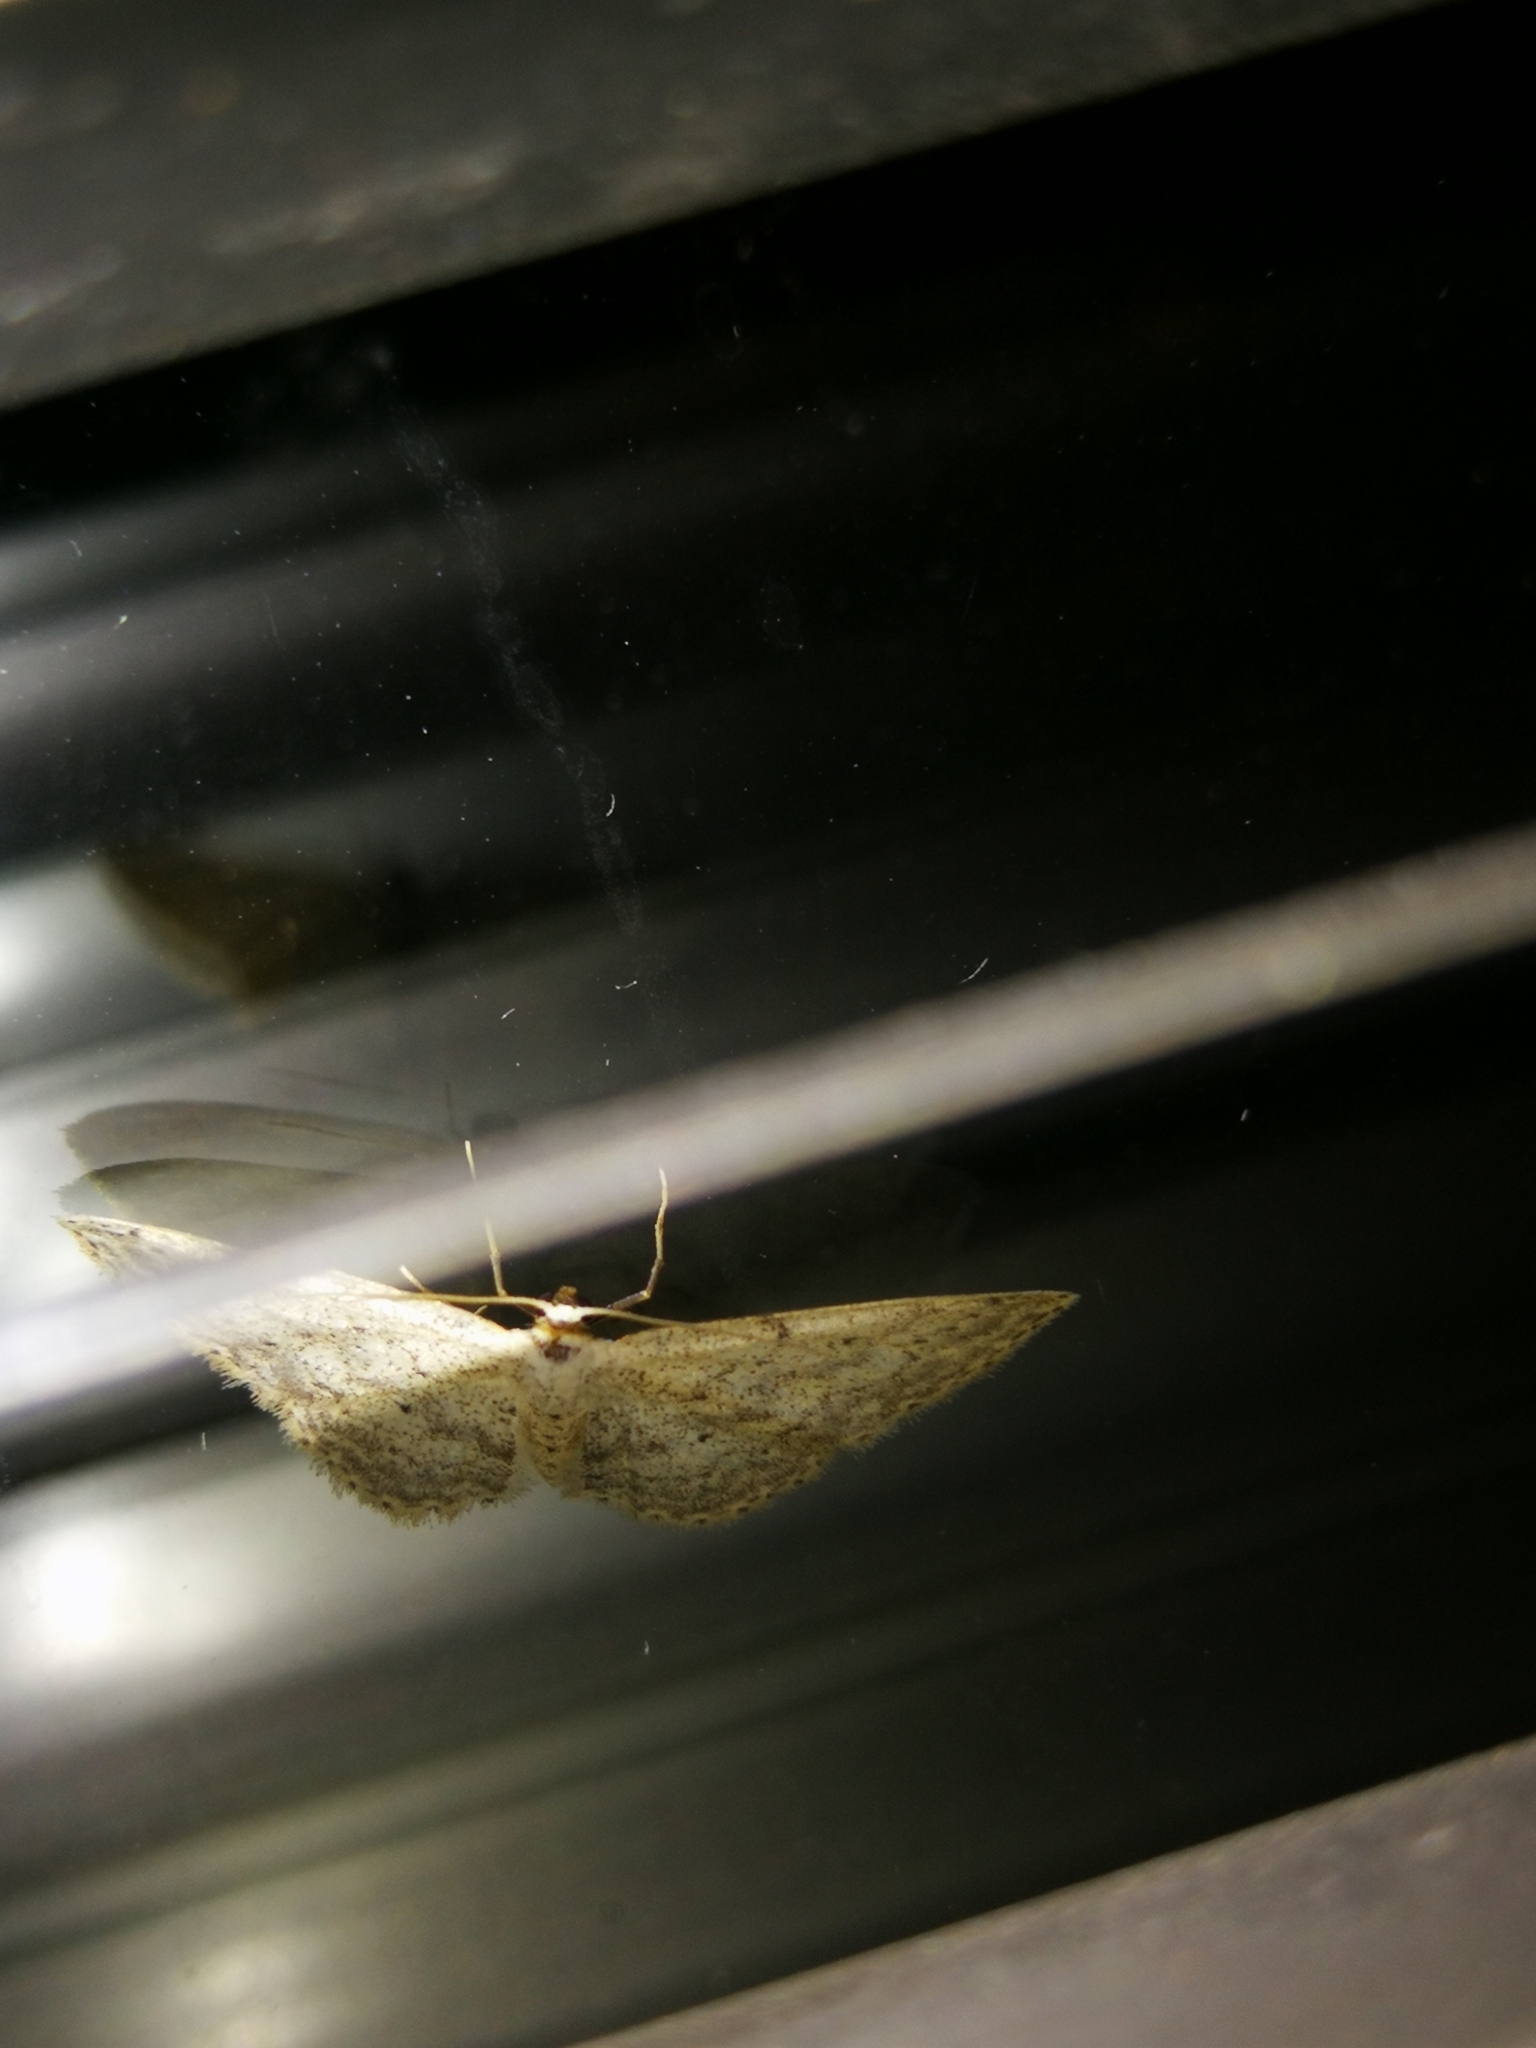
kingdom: Animalia
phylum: Arthropoda
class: Insecta
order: Lepidoptera
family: Geometridae
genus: Idaea
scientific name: Idaea seriata
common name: Small dusty wave
